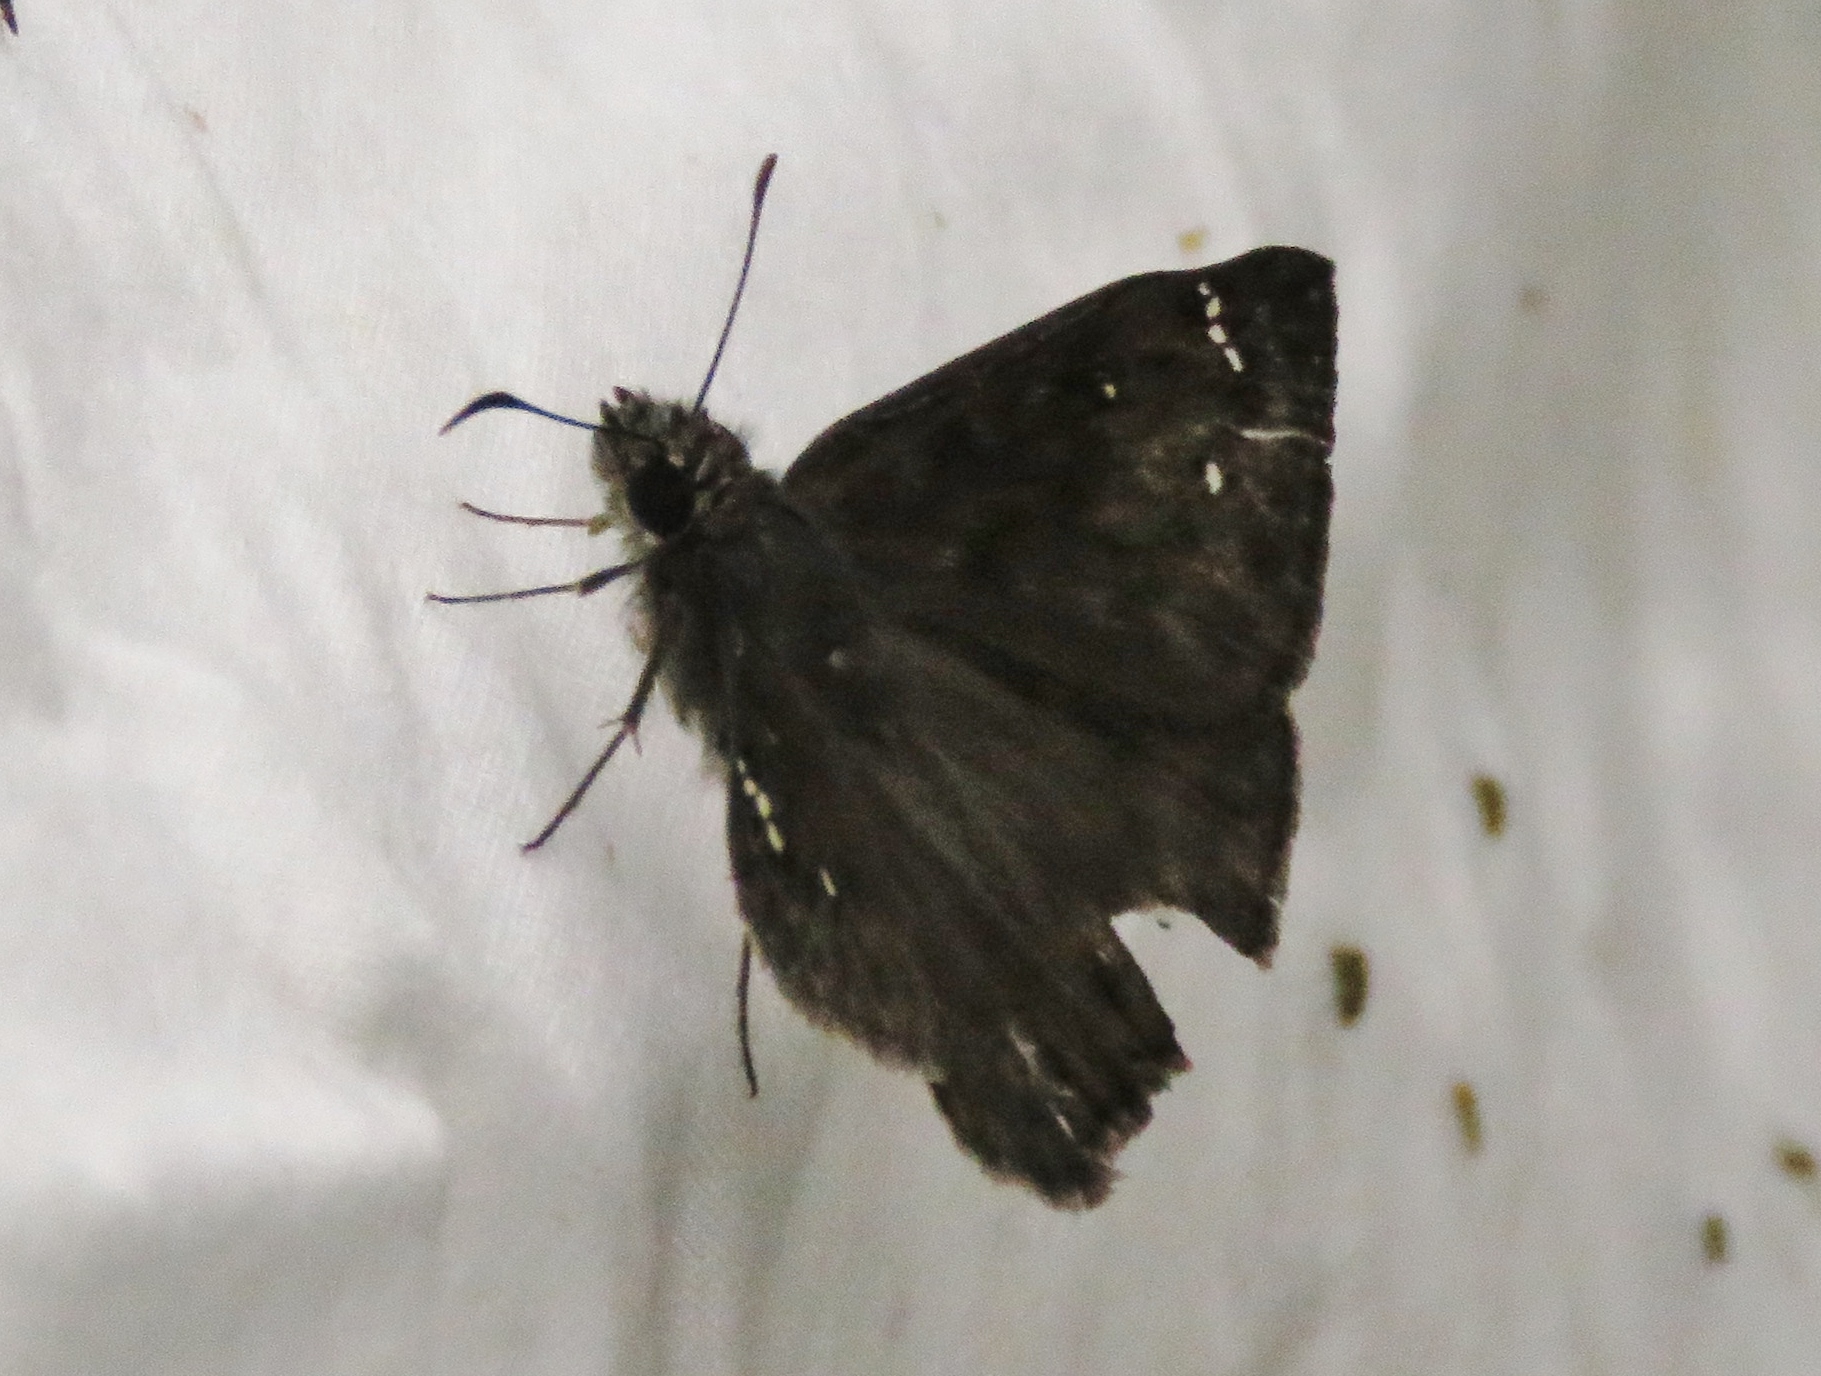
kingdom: Animalia
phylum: Arthropoda
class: Insecta
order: Lepidoptera
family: Hesperiidae
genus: Erynnis
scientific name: Erynnis horatius
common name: Horace's duskywing
